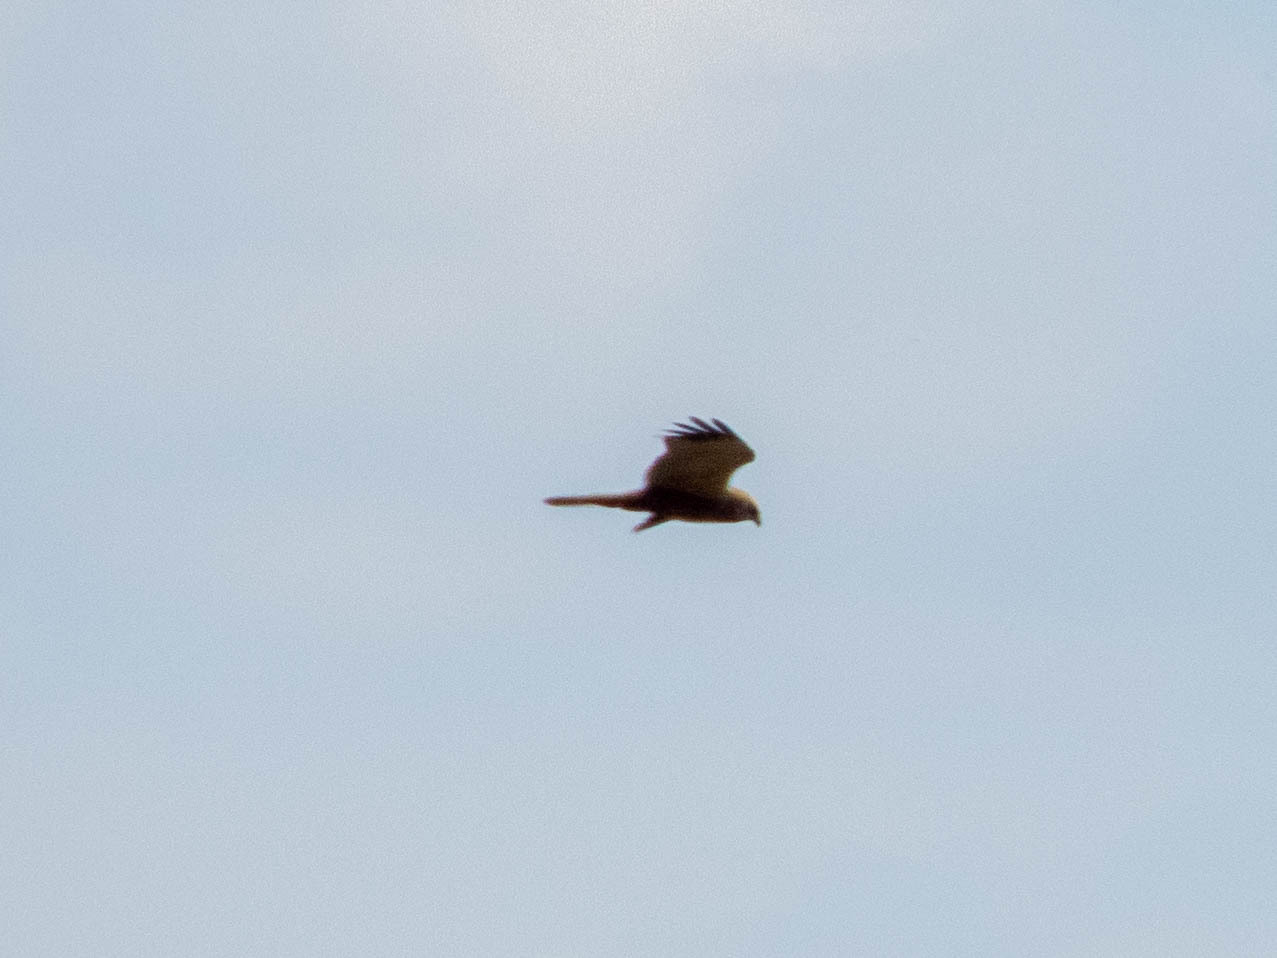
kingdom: Animalia
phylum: Chordata
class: Aves
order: Accipitriformes
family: Accipitridae
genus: Circus
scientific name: Circus aeruginosus
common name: Western marsh harrier
